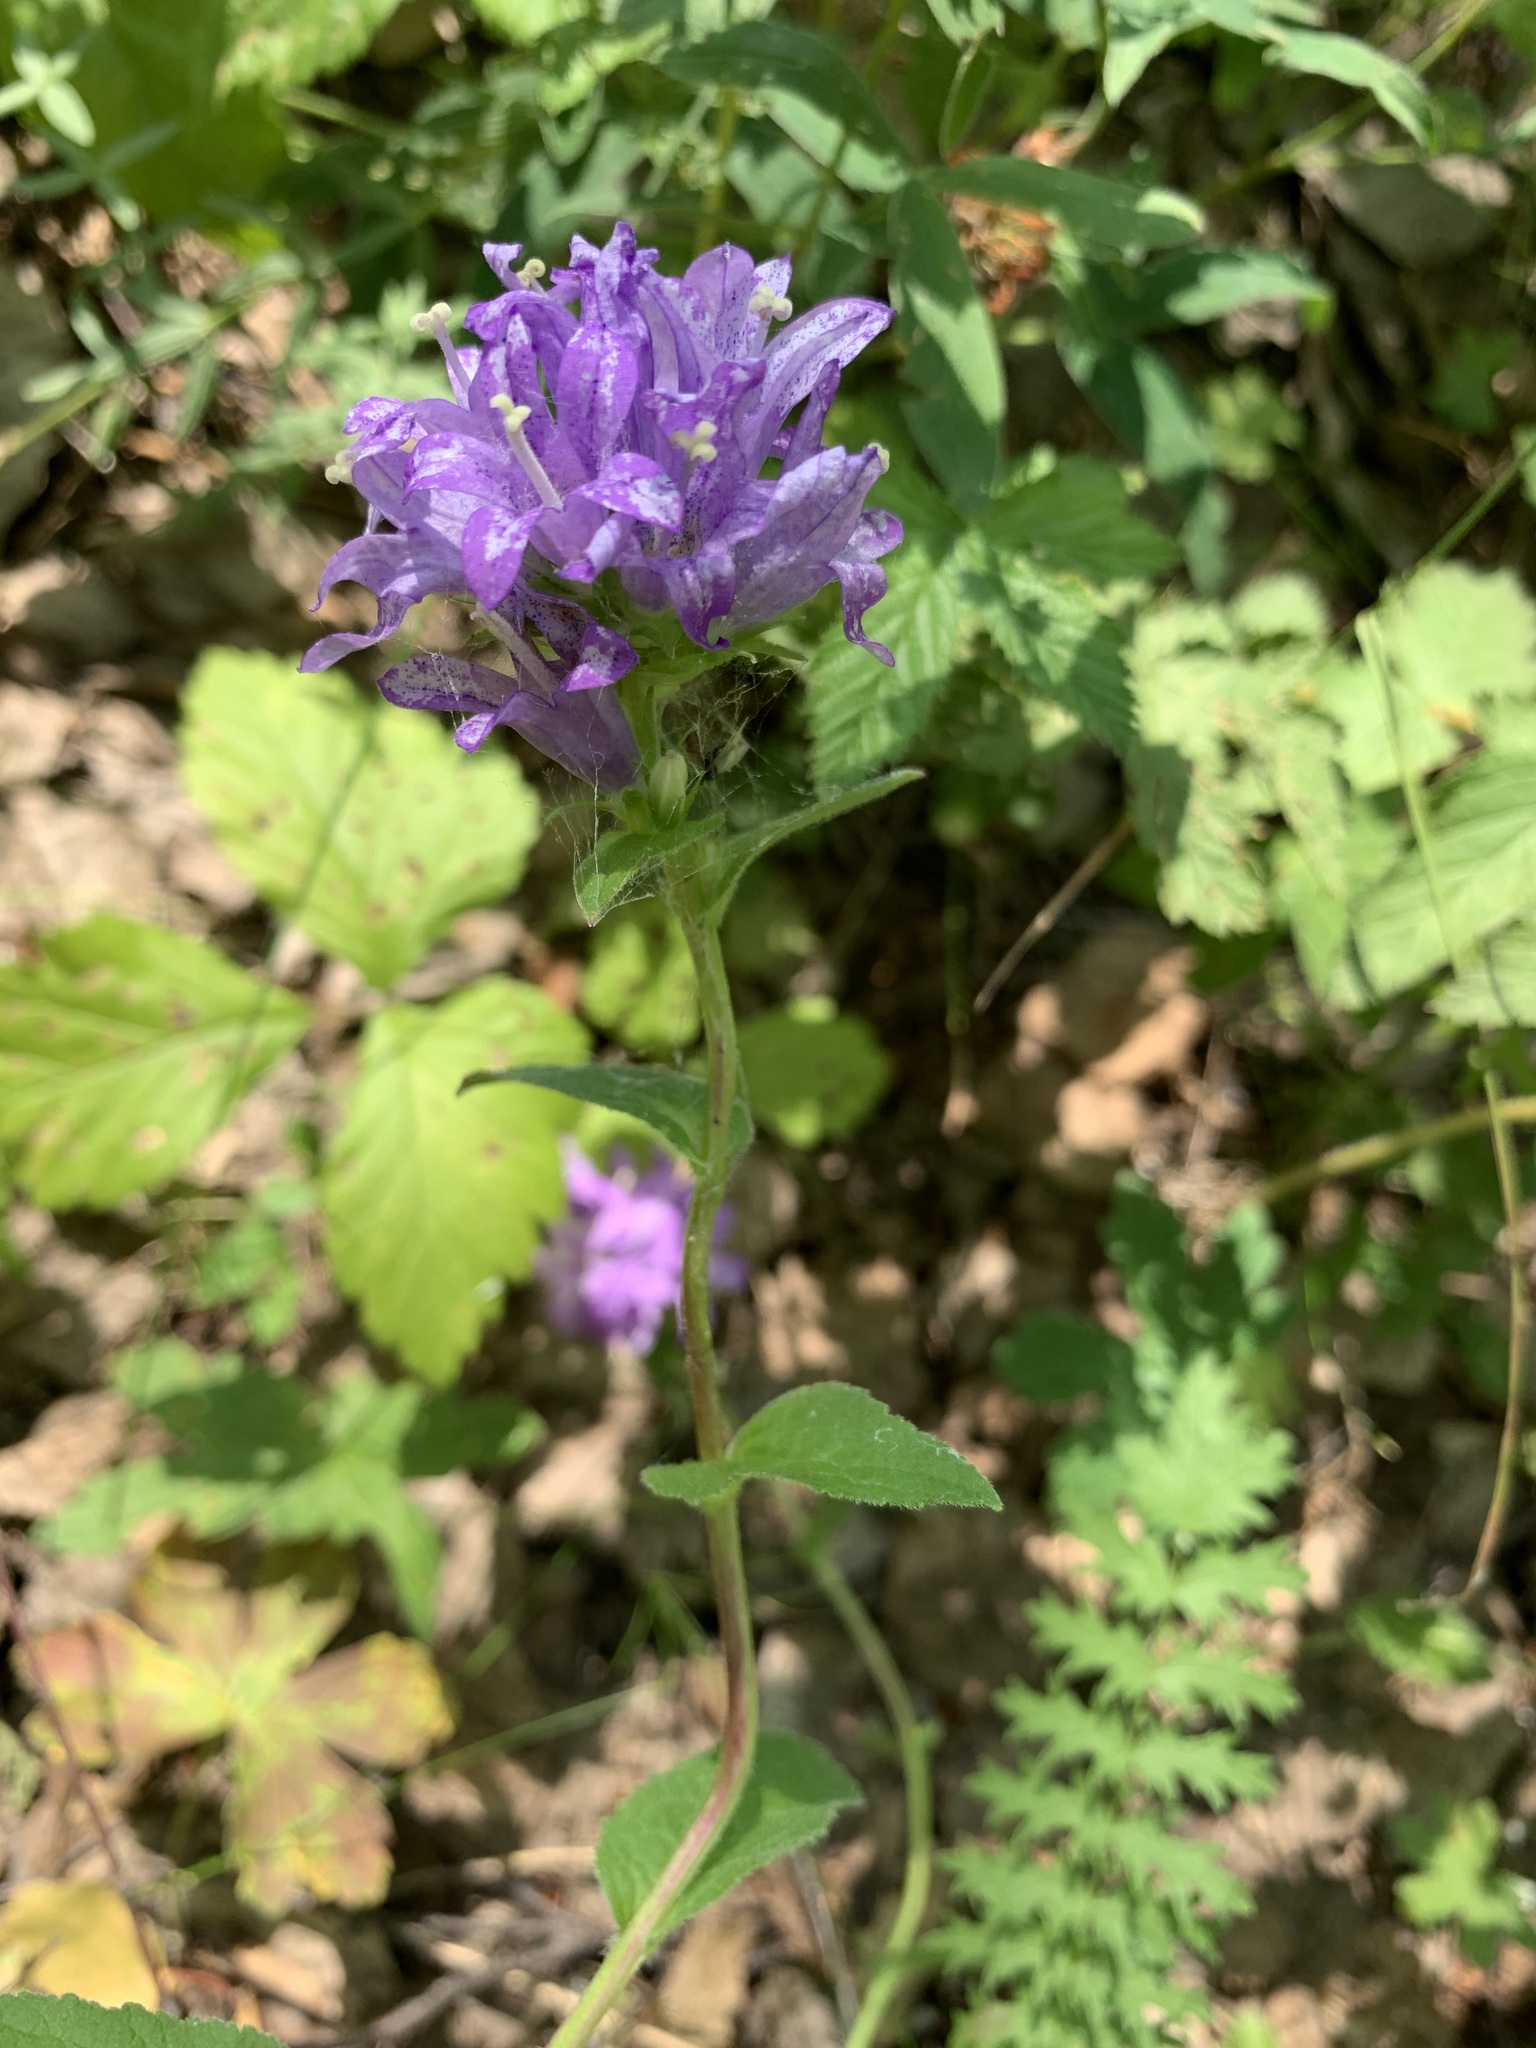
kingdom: Plantae
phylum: Tracheophyta
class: Magnoliopsida
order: Asterales
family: Campanulaceae
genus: Campanula
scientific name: Campanula glomerata
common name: Clustered bellflower
